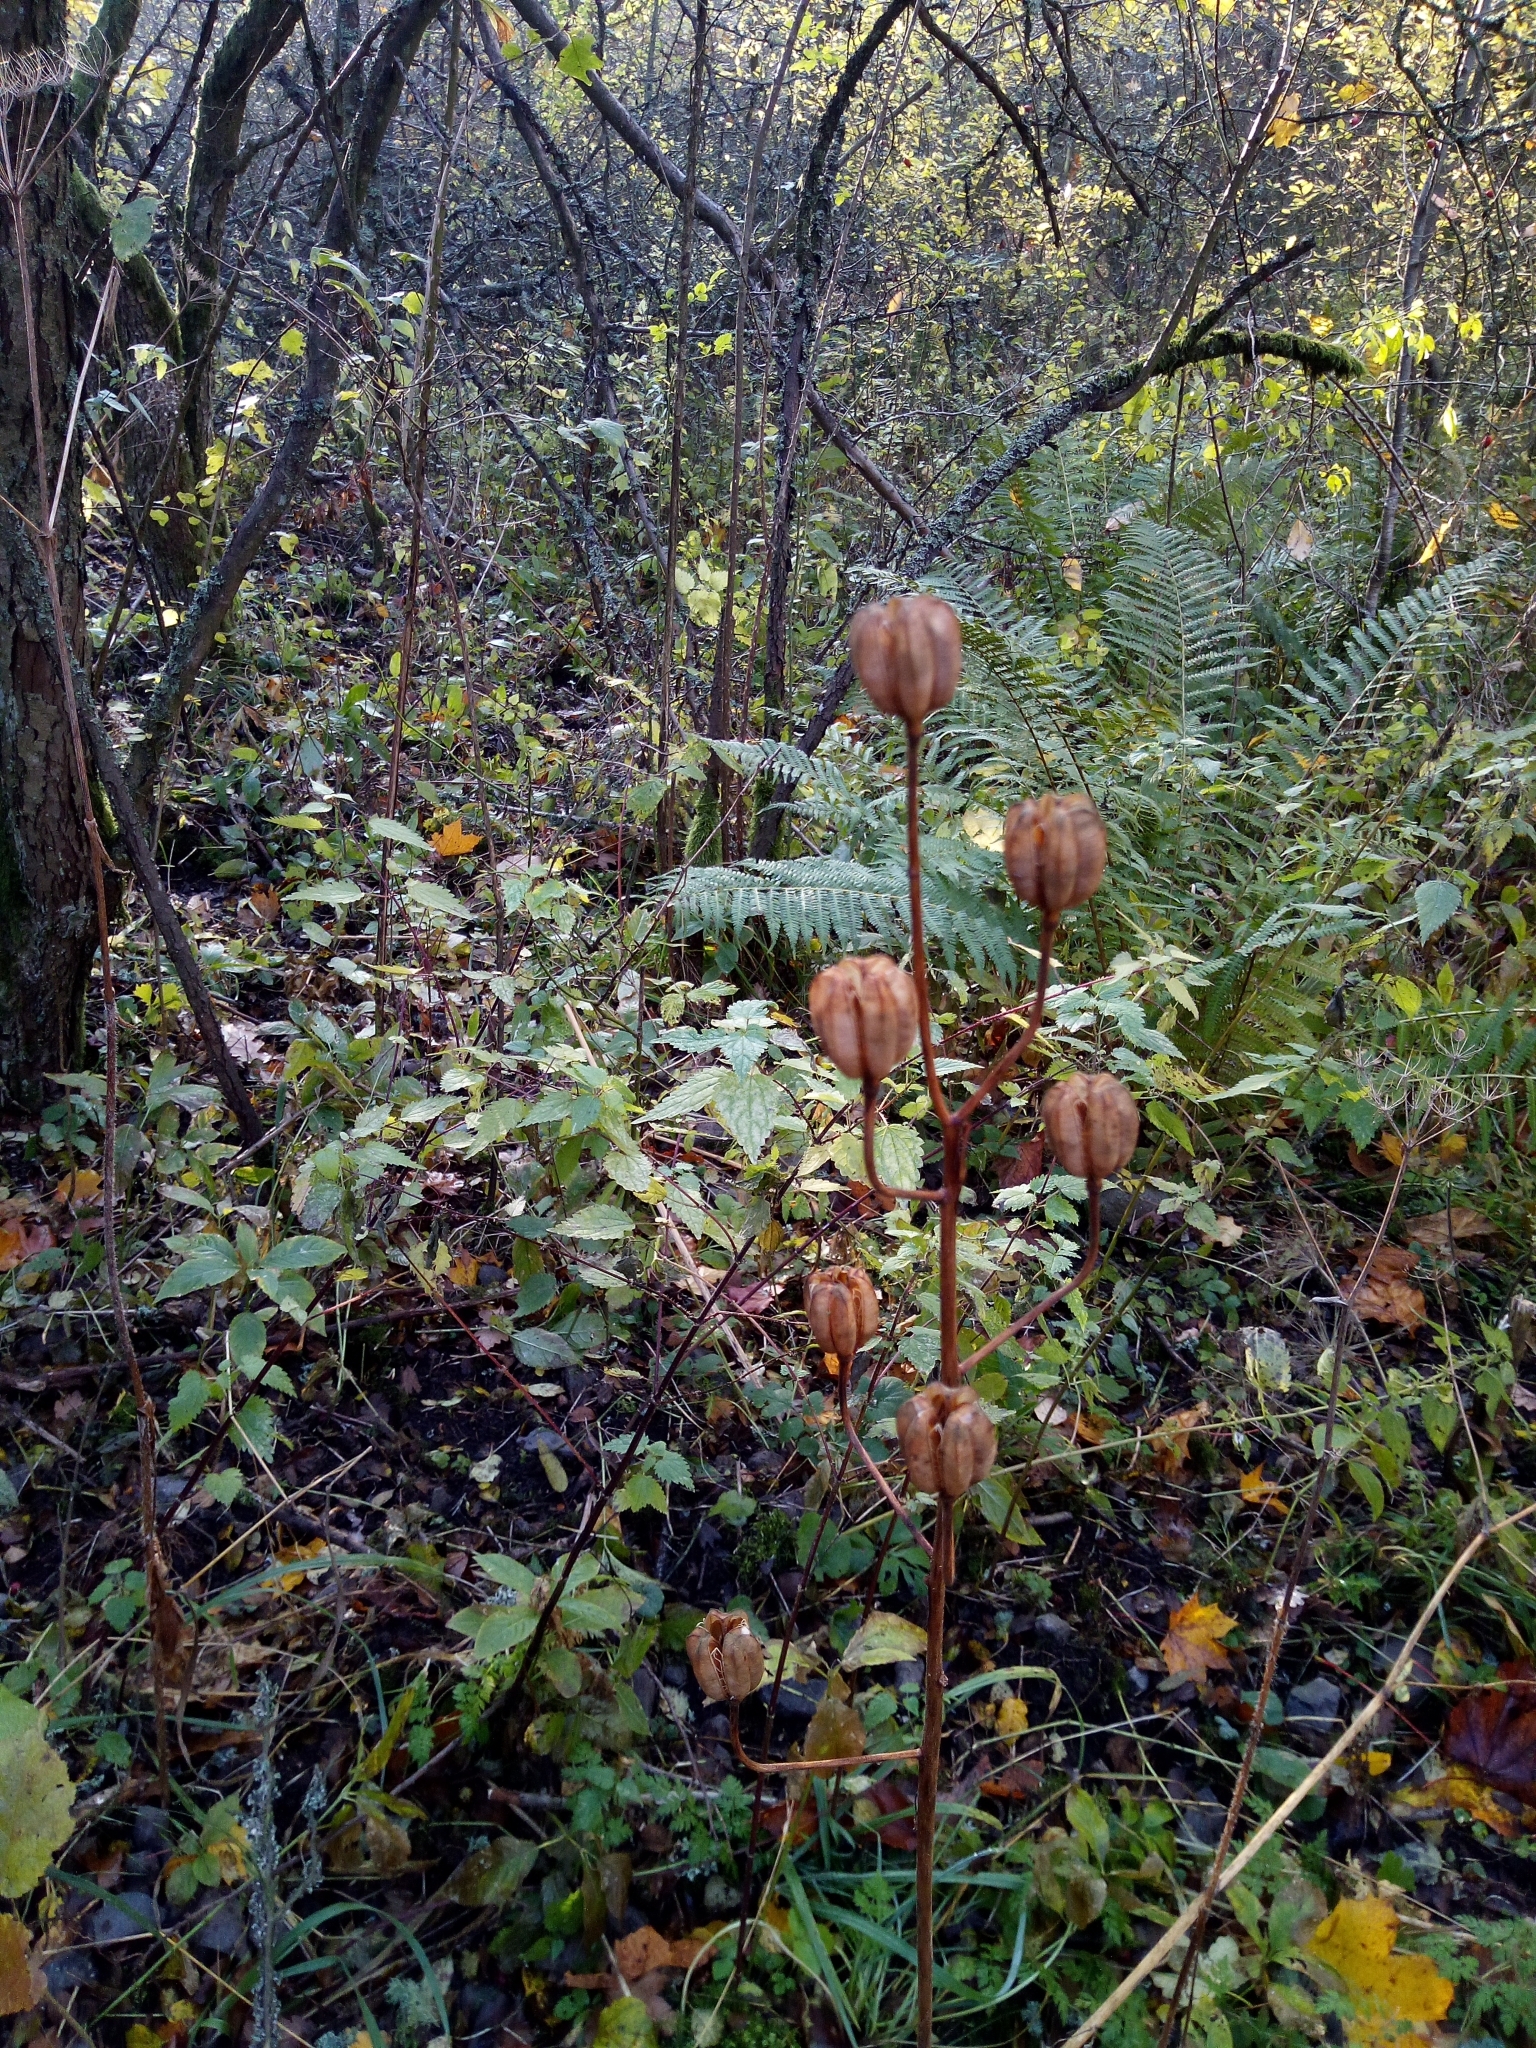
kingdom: Plantae
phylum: Tracheophyta
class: Liliopsida
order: Liliales
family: Liliaceae
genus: Lilium
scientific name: Lilium martagon
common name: Martagon lily
